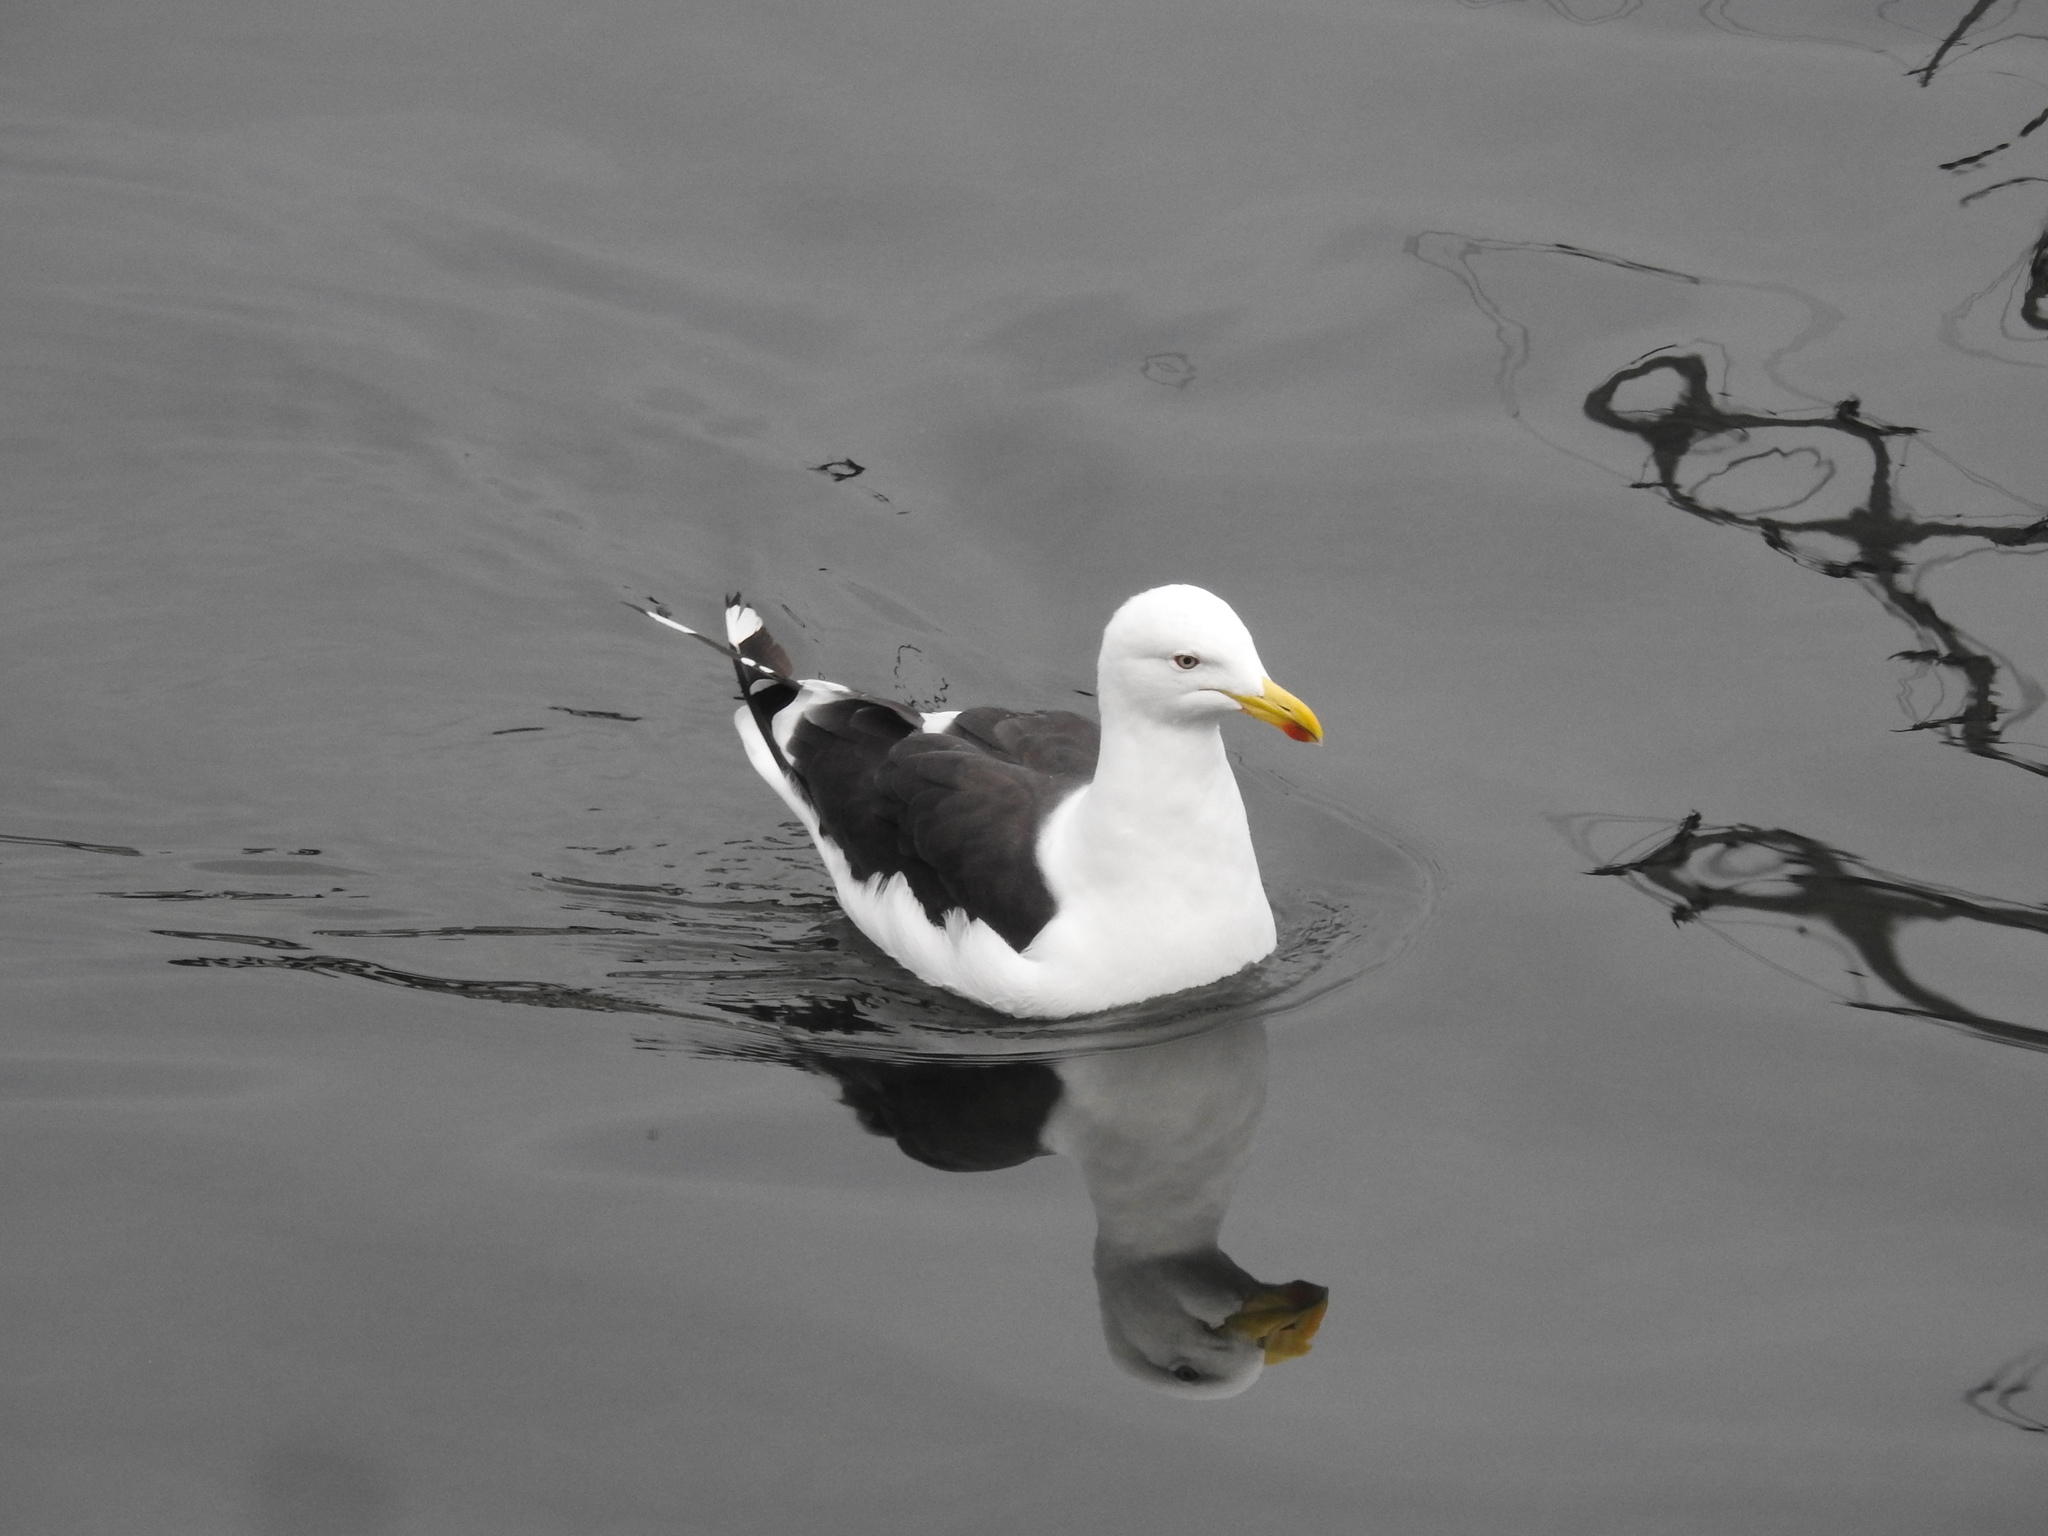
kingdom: Animalia
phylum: Chordata
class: Aves
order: Charadriiformes
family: Laridae
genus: Larus
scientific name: Larus dominicanus
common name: Kelp gull
